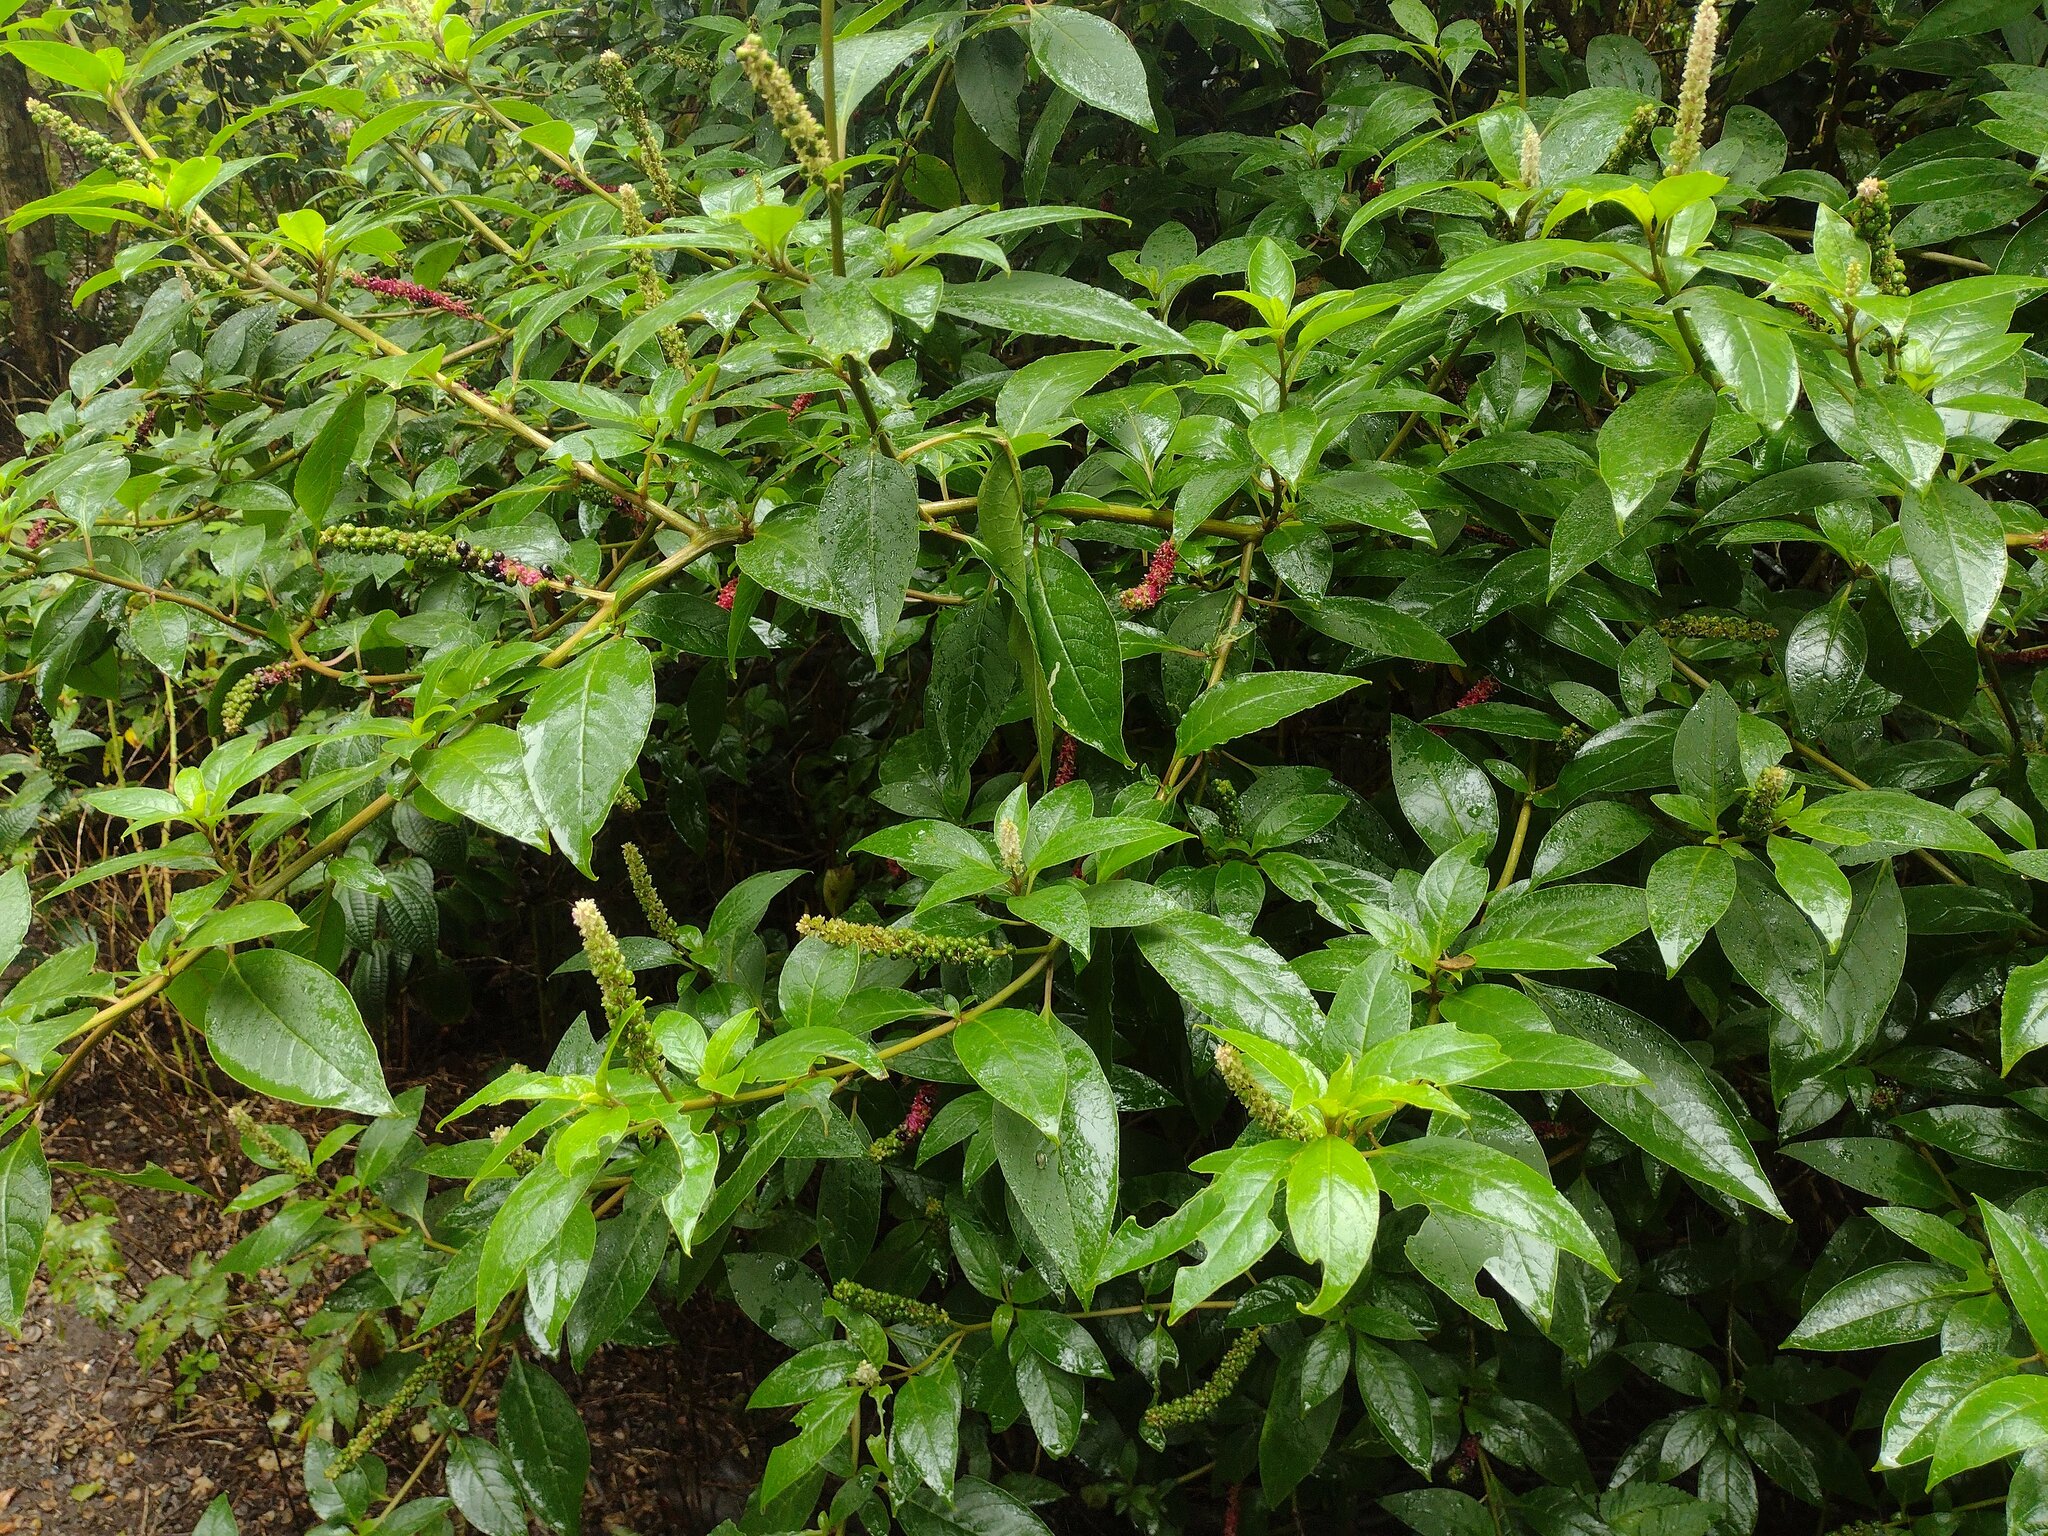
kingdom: Plantae
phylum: Tracheophyta
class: Magnoliopsida
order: Caryophyllales
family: Phytolaccaceae
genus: Phytolacca
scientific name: Phytolacca icosandra
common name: Button pokeweed
